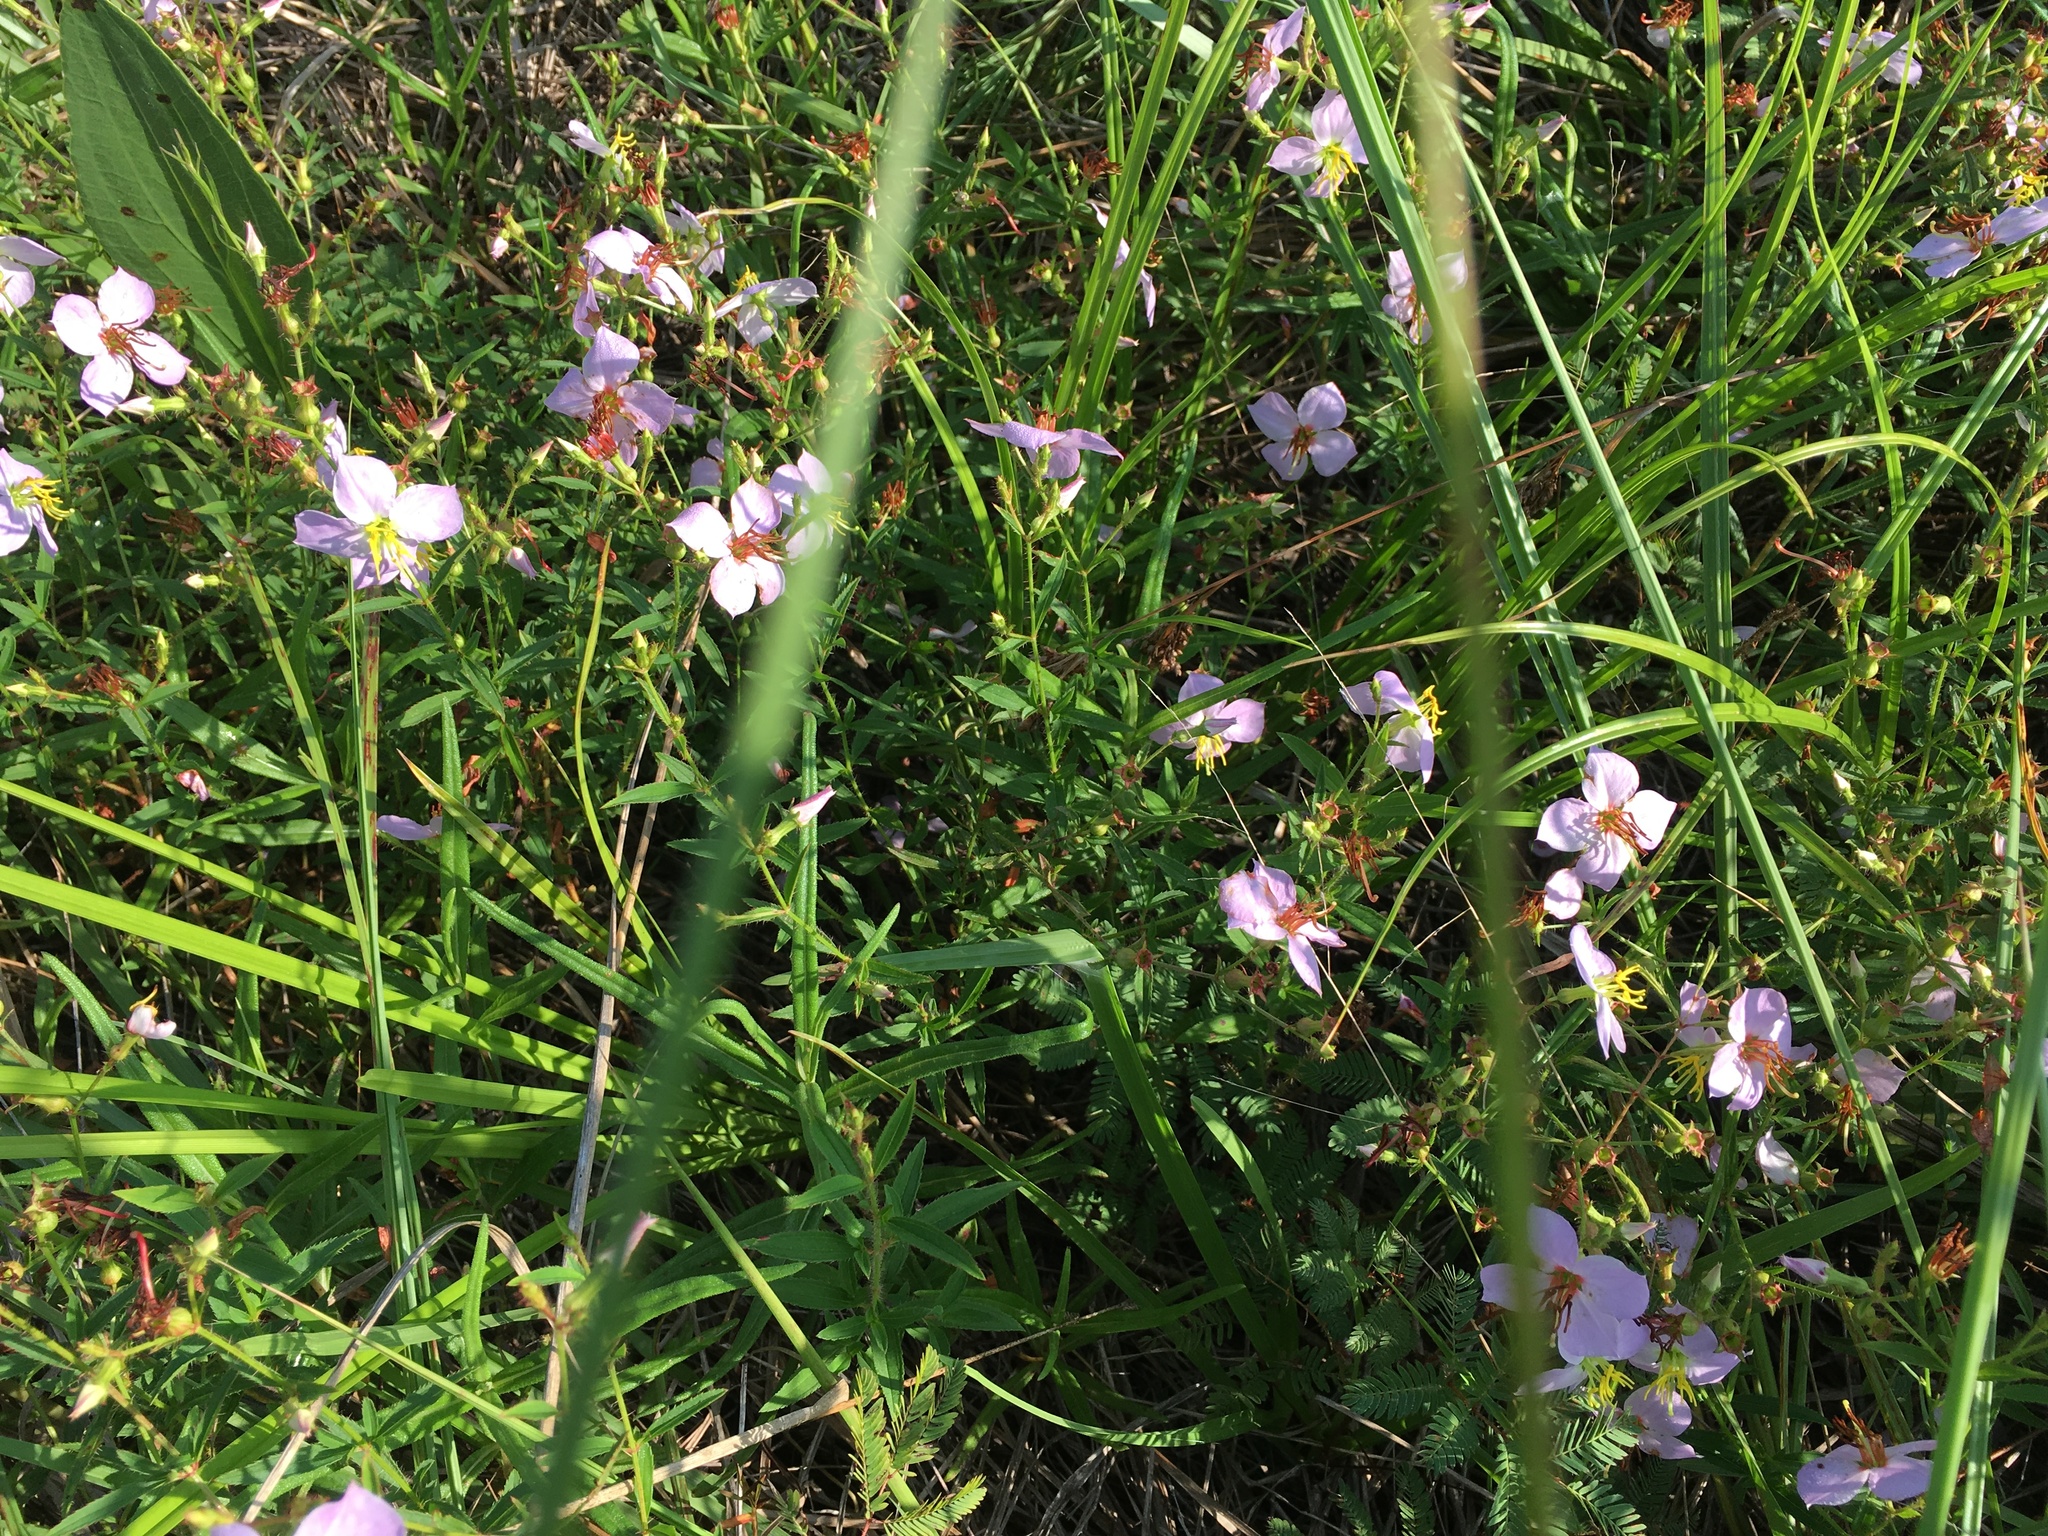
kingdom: Plantae
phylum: Tracheophyta
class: Magnoliopsida
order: Myrtales
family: Melastomataceae
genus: Rhexia
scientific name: Rhexia mariana
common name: Dull meadow-pitcher
